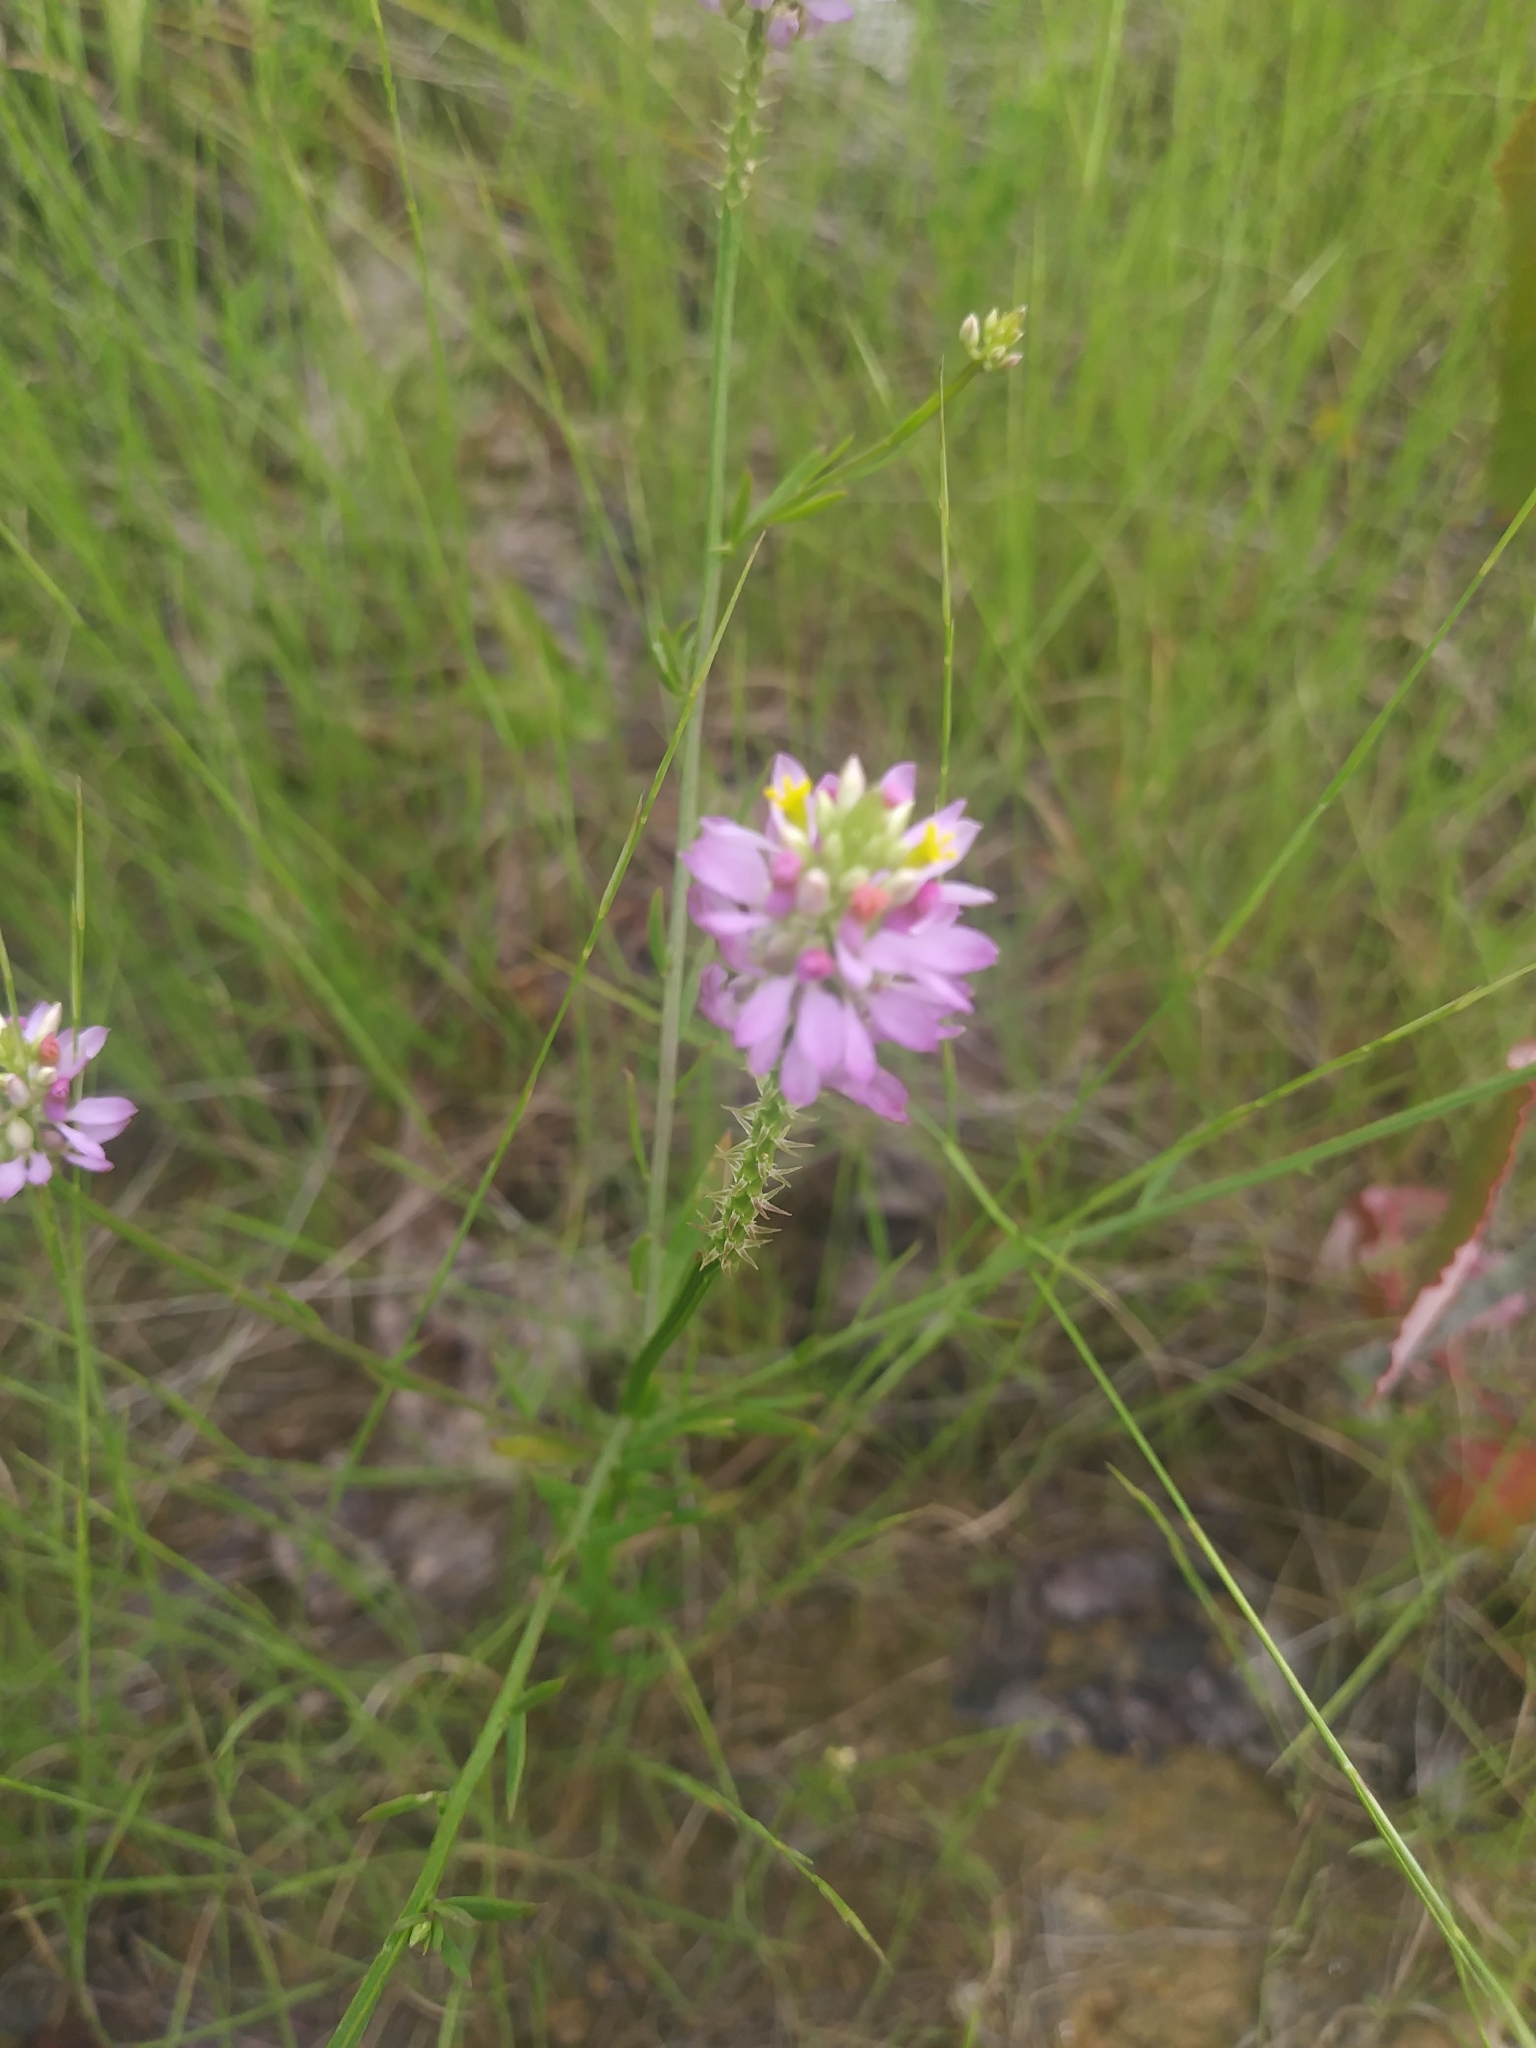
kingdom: Plantae
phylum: Tracheophyta
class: Magnoliopsida
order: Fabales
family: Polygalaceae
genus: Polygala
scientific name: Polygala curtissii
